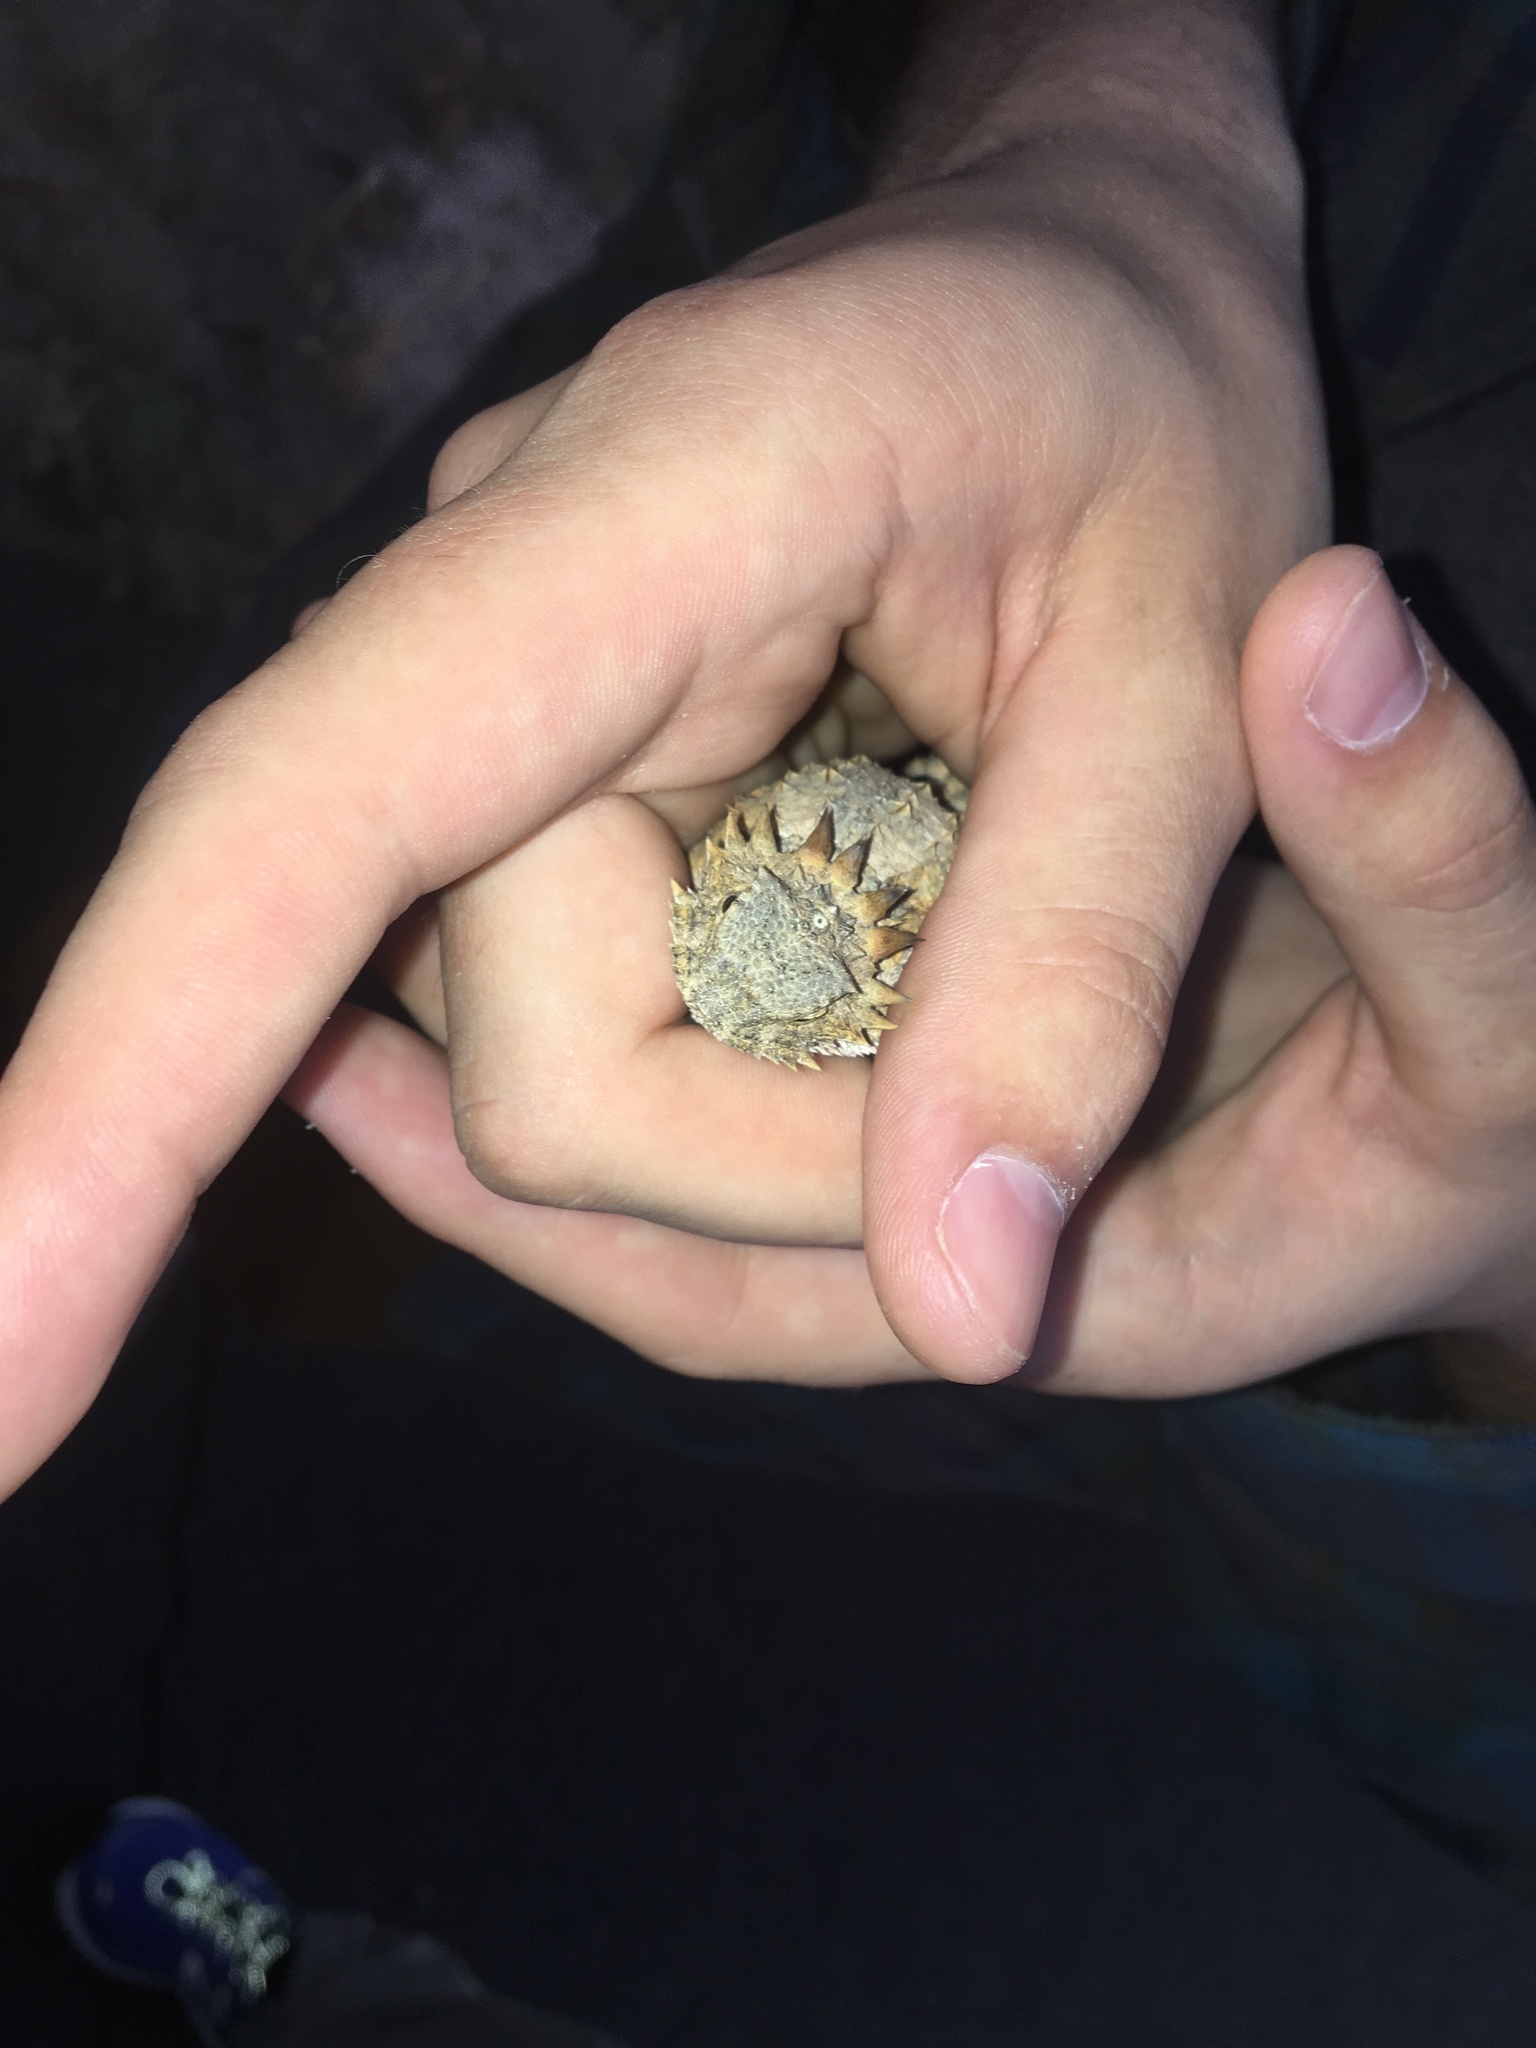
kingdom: Animalia
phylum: Chordata
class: Squamata
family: Phrynosomatidae
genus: Phrynosoma
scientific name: Phrynosoma solare
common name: Regal horned lizard
